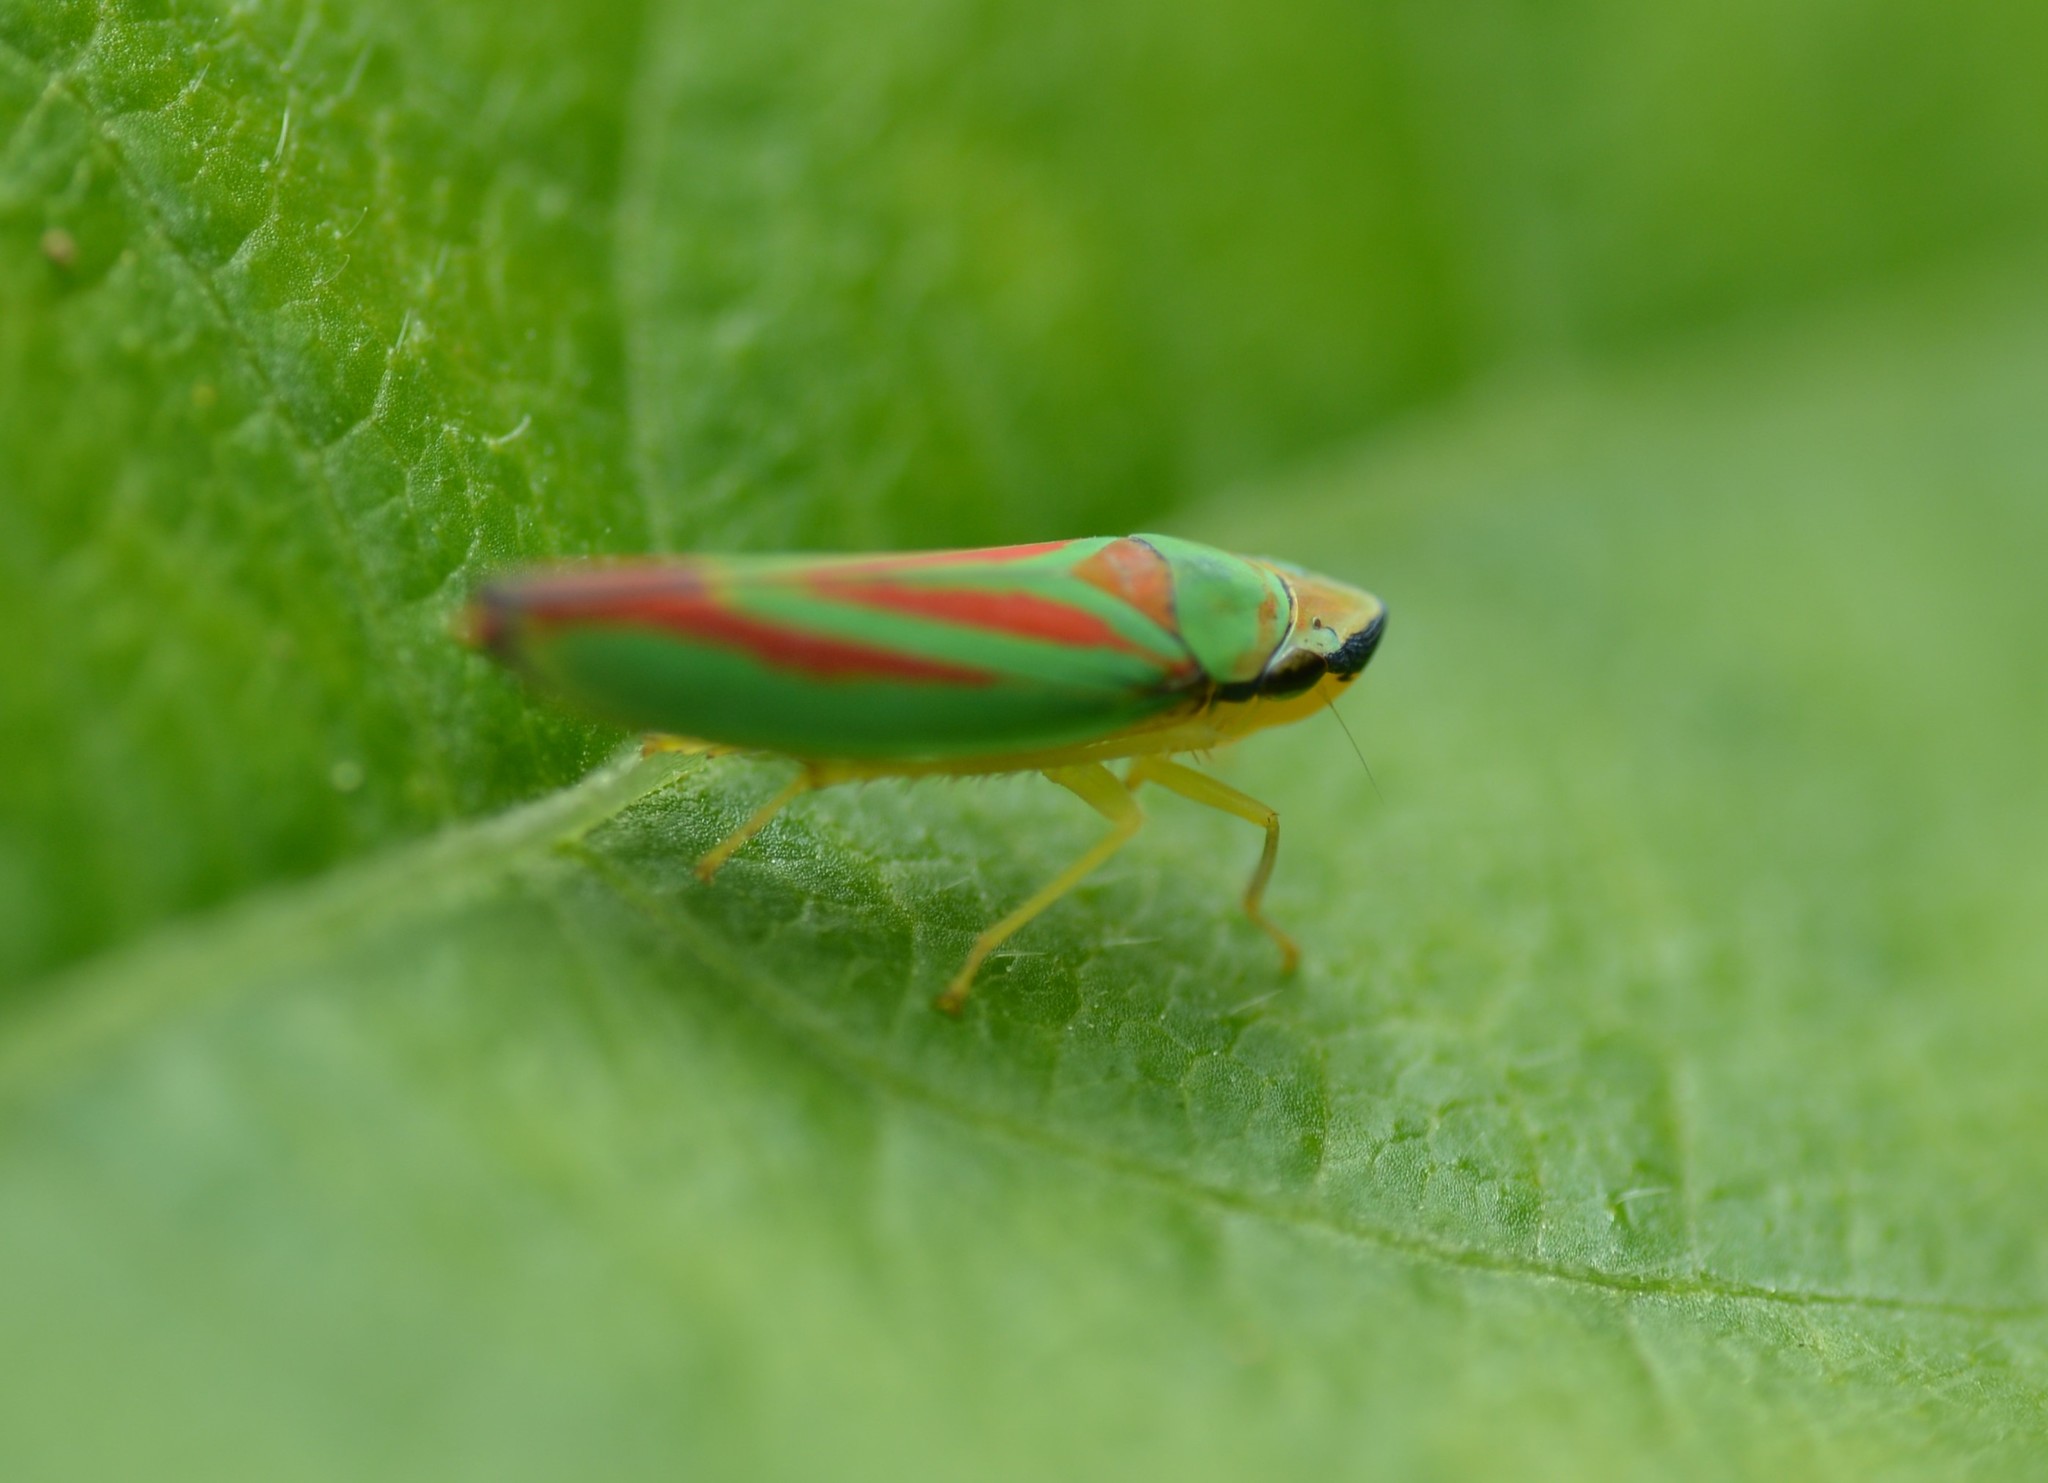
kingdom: Animalia
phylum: Arthropoda
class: Insecta
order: Hemiptera
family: Cicadellidae
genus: Graphocephala
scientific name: Graphocephala fennahi
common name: Rhododendron leafhopper
